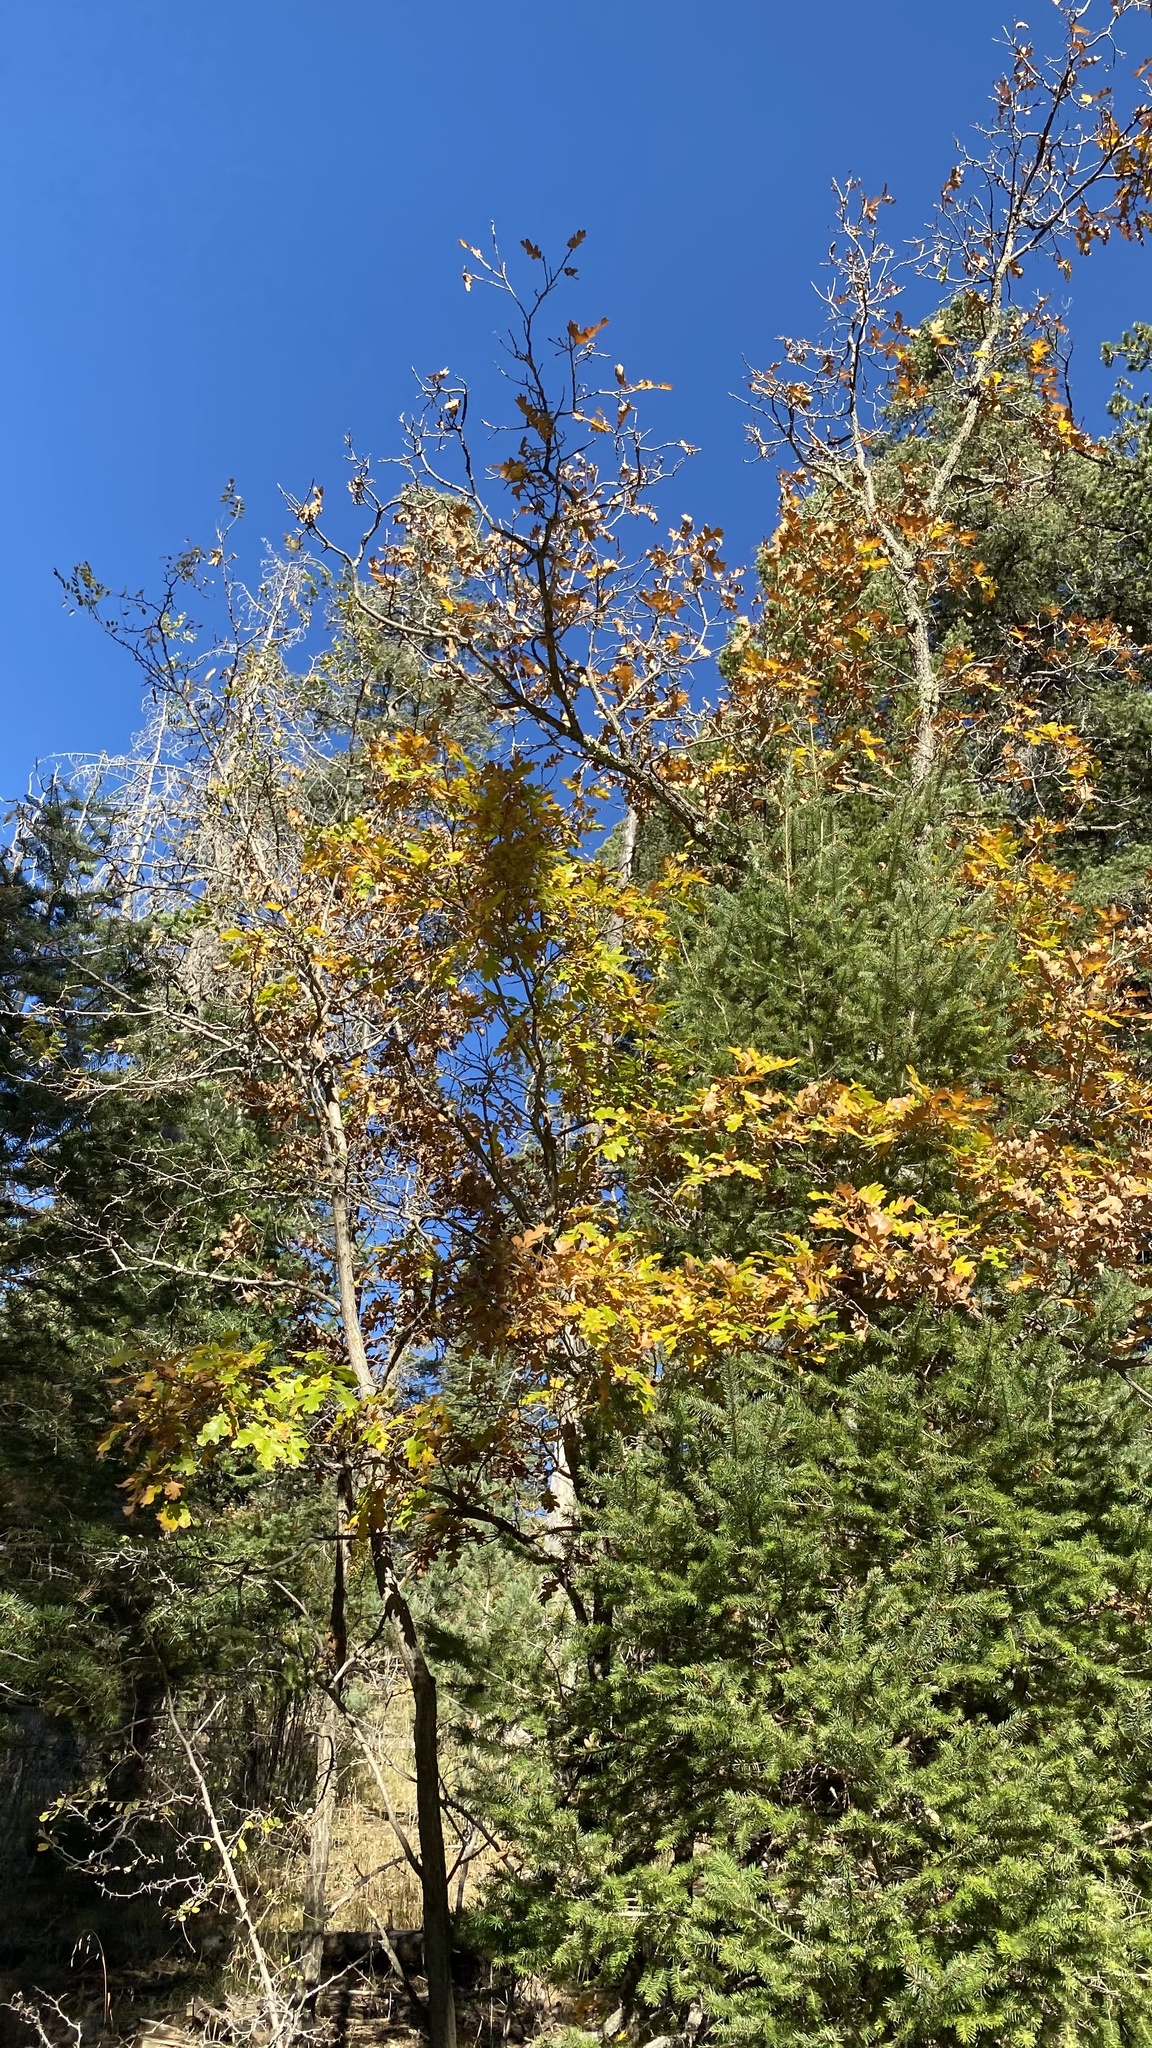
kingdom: Plantae
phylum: Tracheophyta
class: Magnoliopsida
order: Fagales
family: Fagaceae
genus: Quercus
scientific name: Quercus gambelii
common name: Gambel oak
